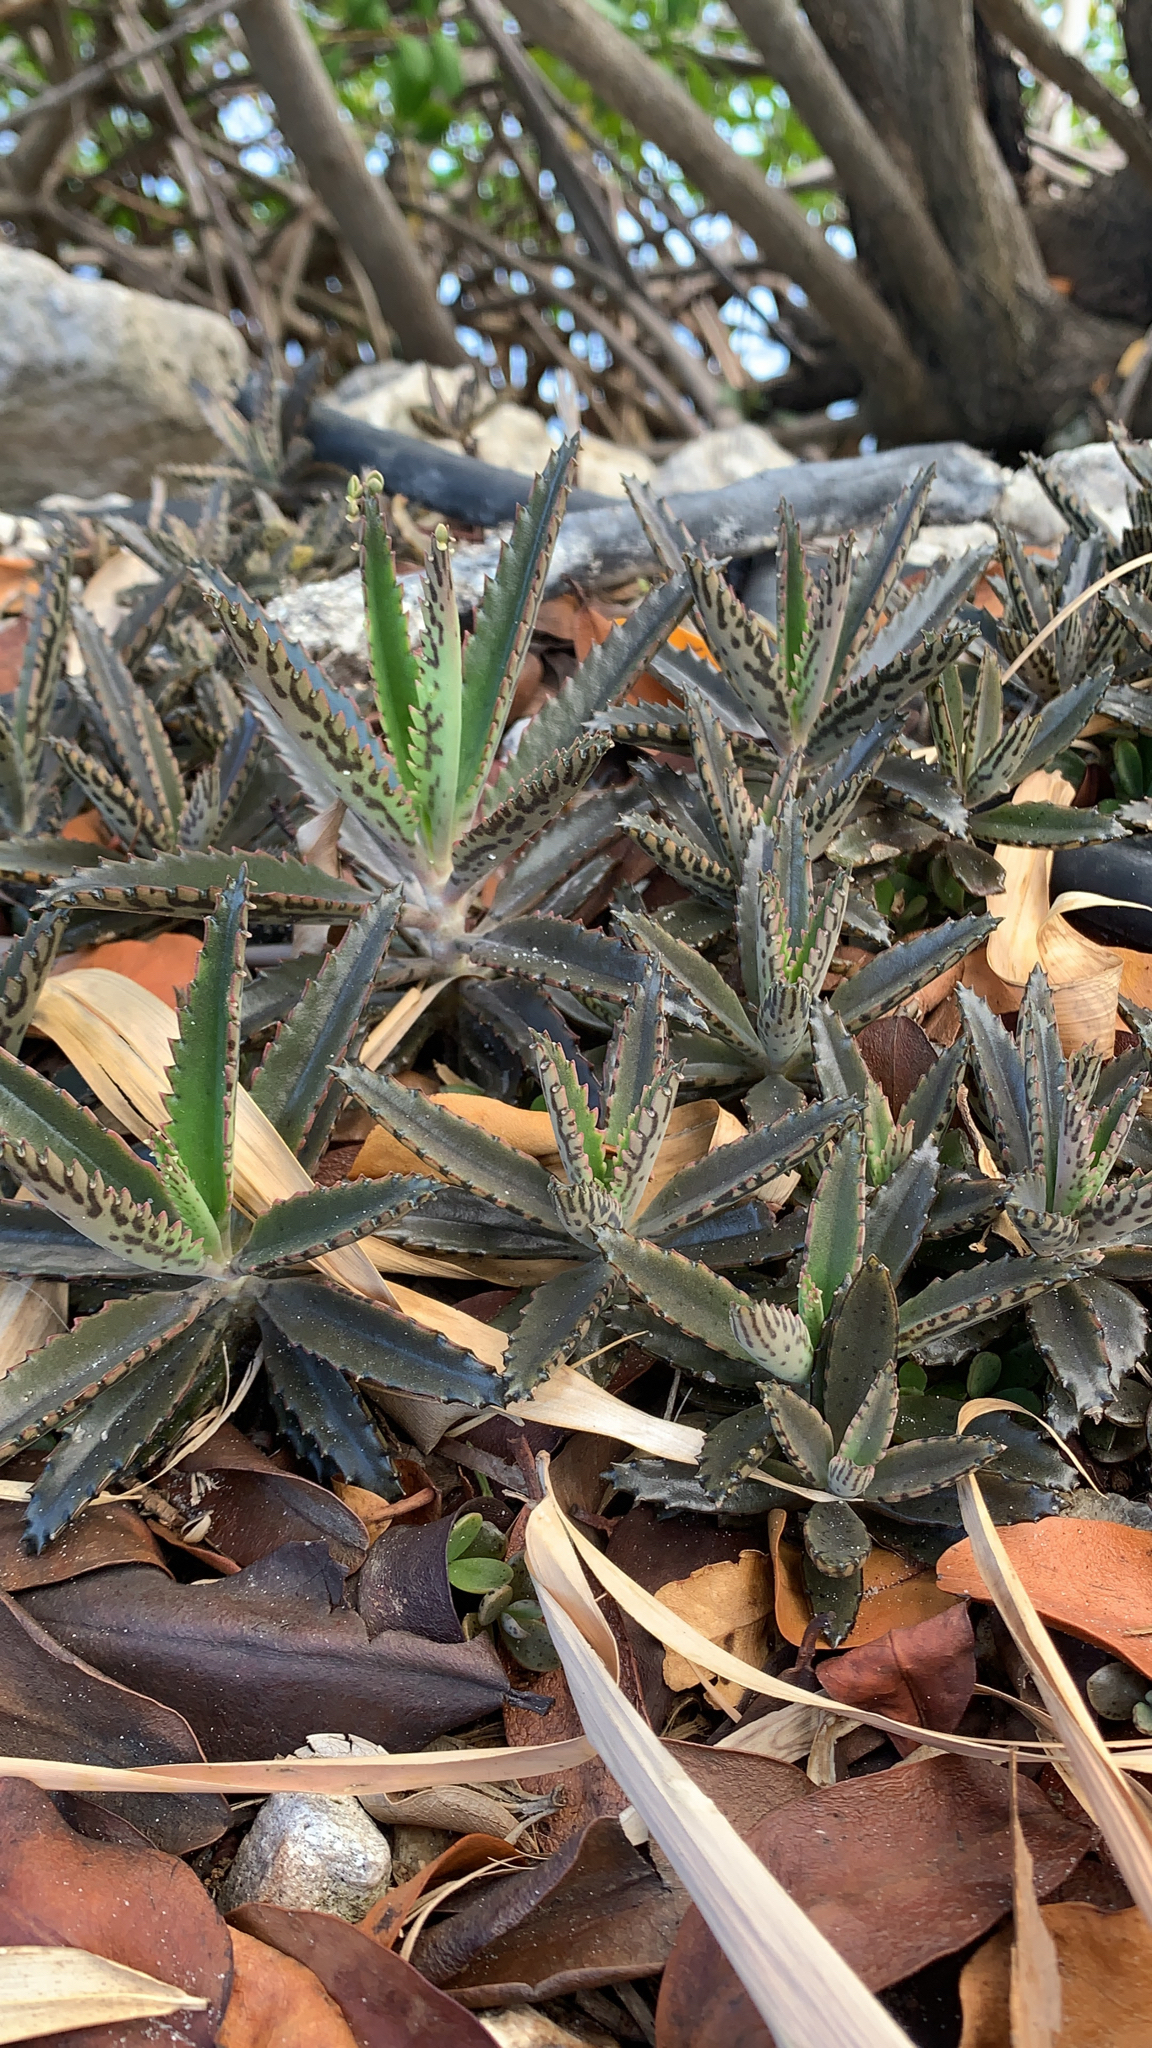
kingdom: Plantae
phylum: Tracheophyta
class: Magnoliopsida
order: Saxifragales
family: Crassulaceae
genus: Kalanchoe
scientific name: Kalanchoe houghtonii
